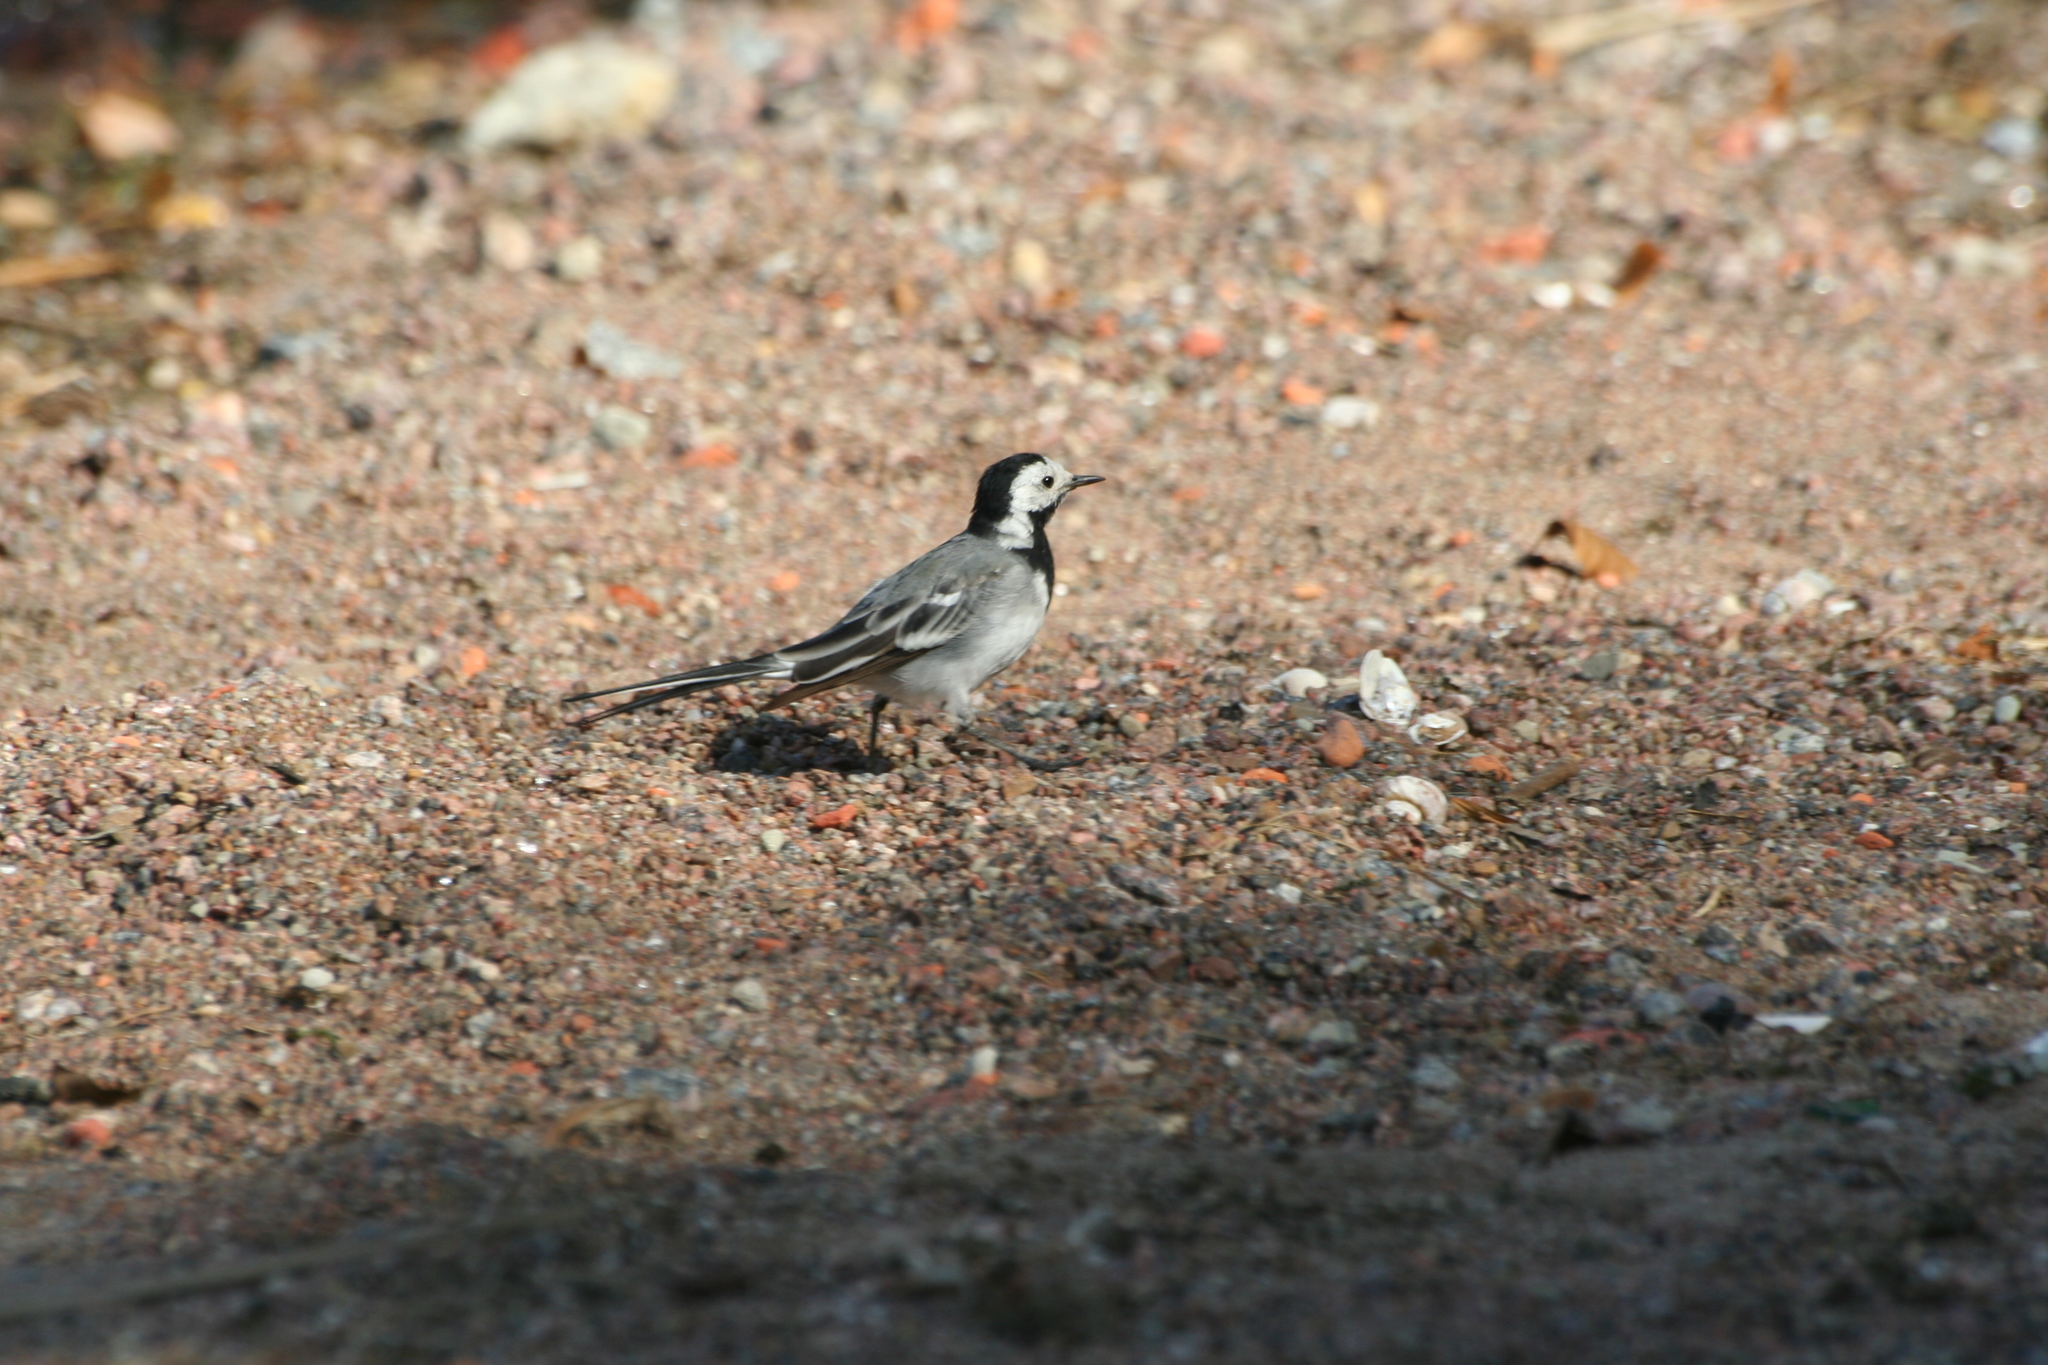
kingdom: Animalia
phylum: Chordata
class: Aves
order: Passeriformes
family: Motacillidae
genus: Motacilla
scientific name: Motacilla alba
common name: White wagtail
